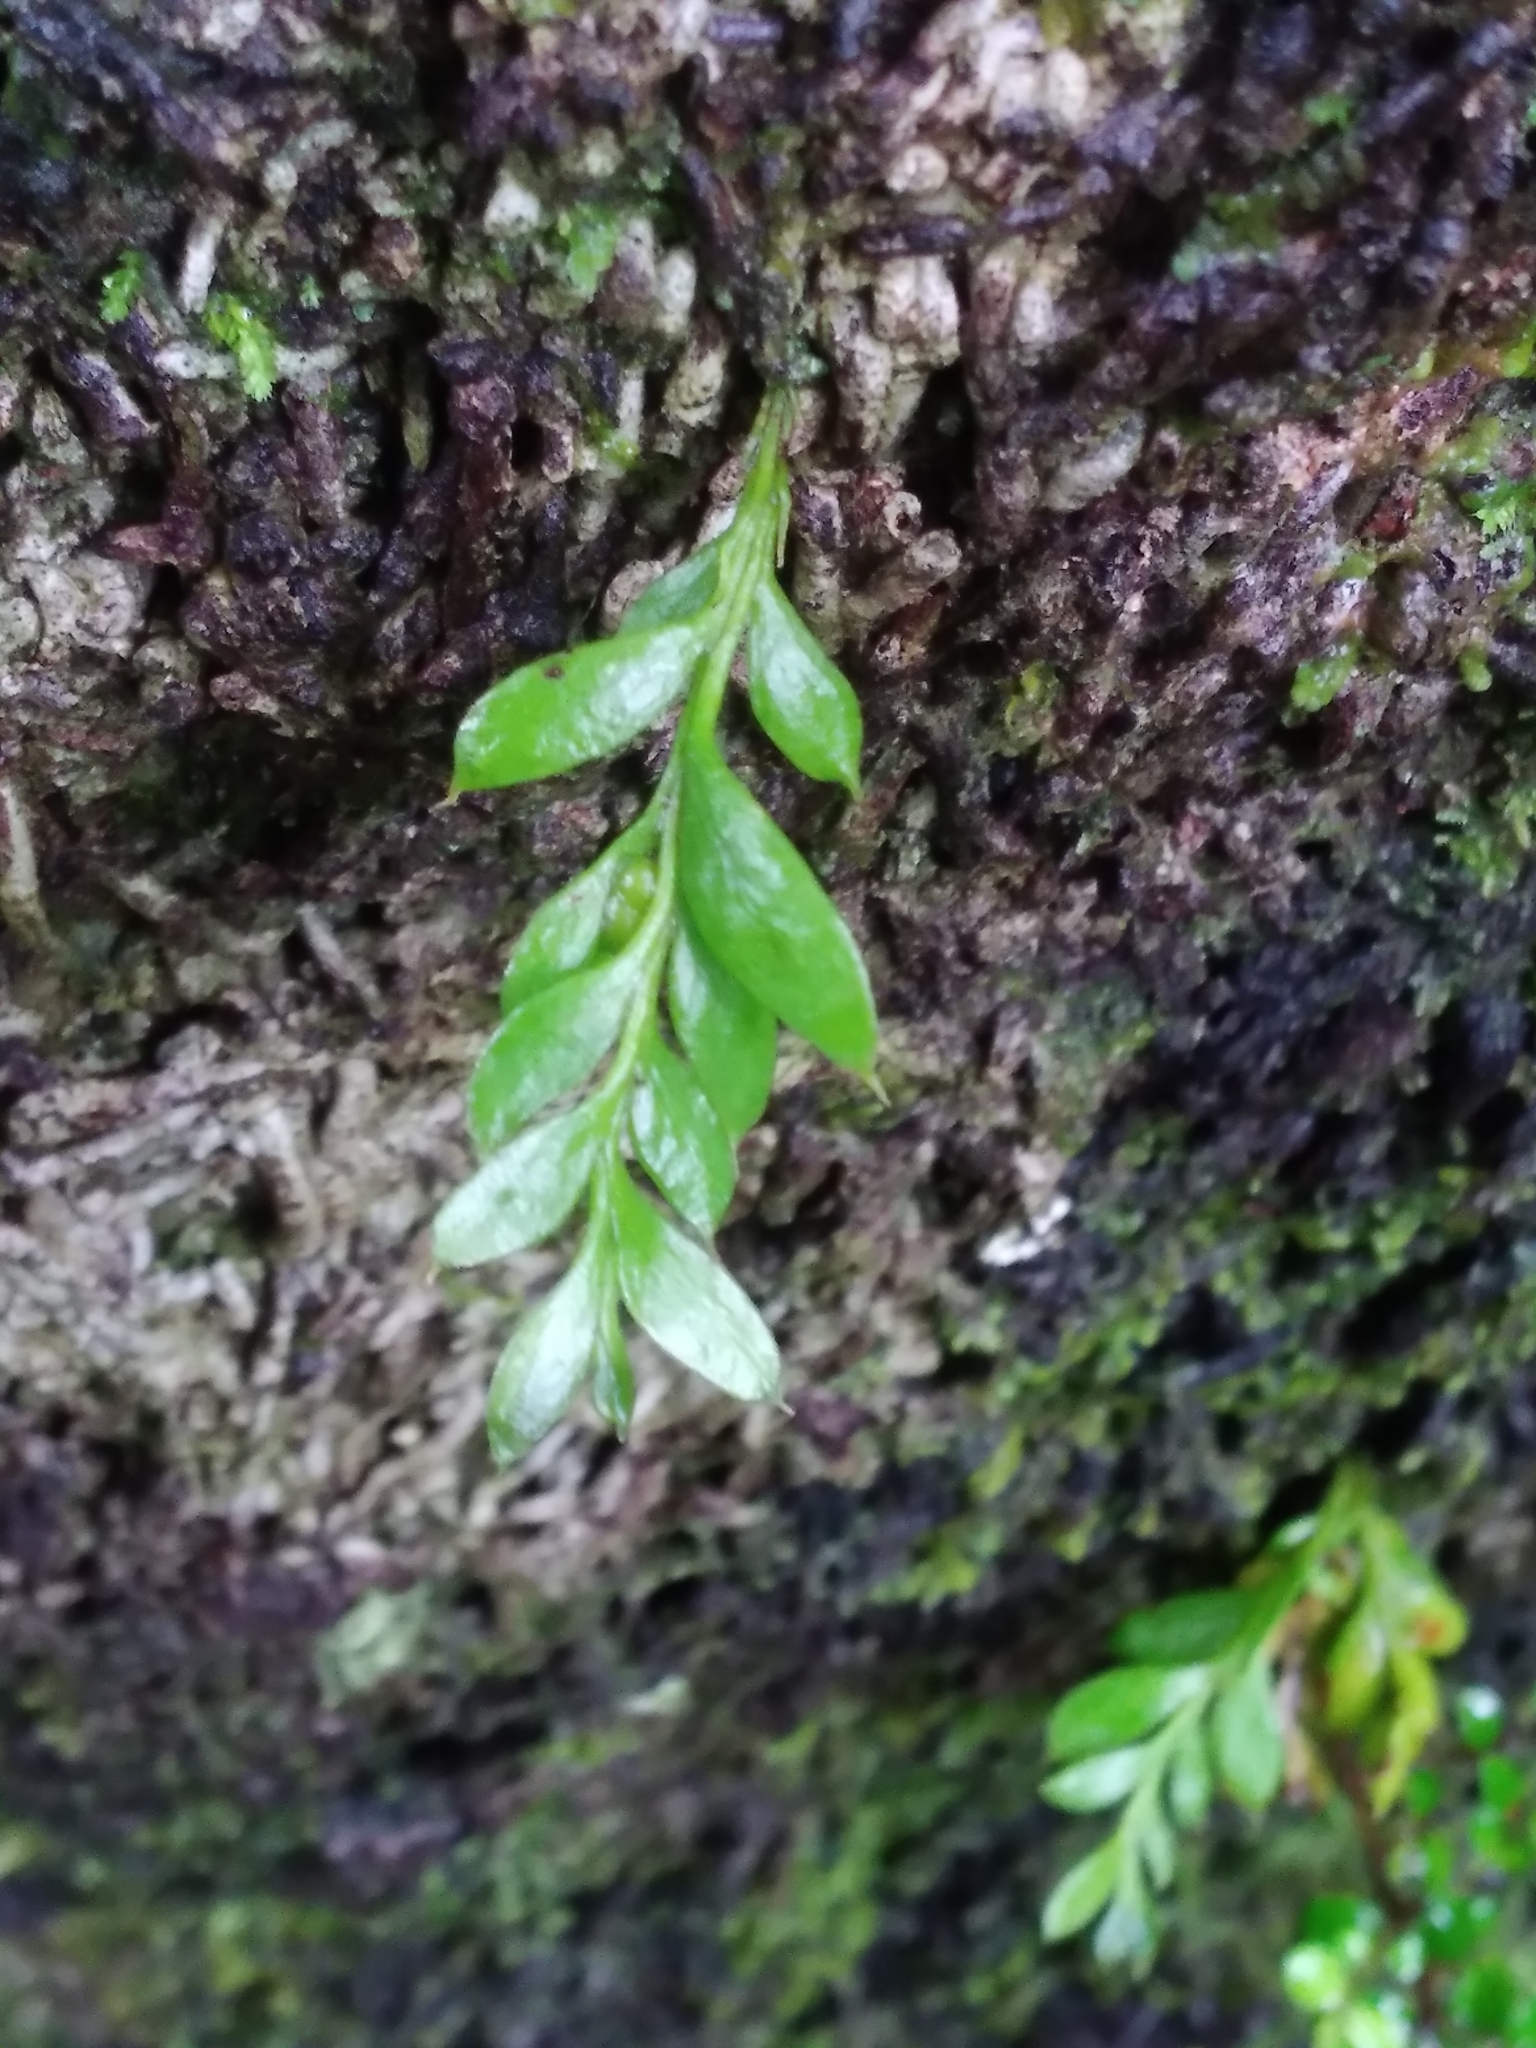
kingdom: Plantae
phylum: Tracheophyta
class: Polypodiopsida
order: Psilotales
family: Psilotaceae
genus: Tmesipteris
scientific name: Tmesipteris lanceolata
